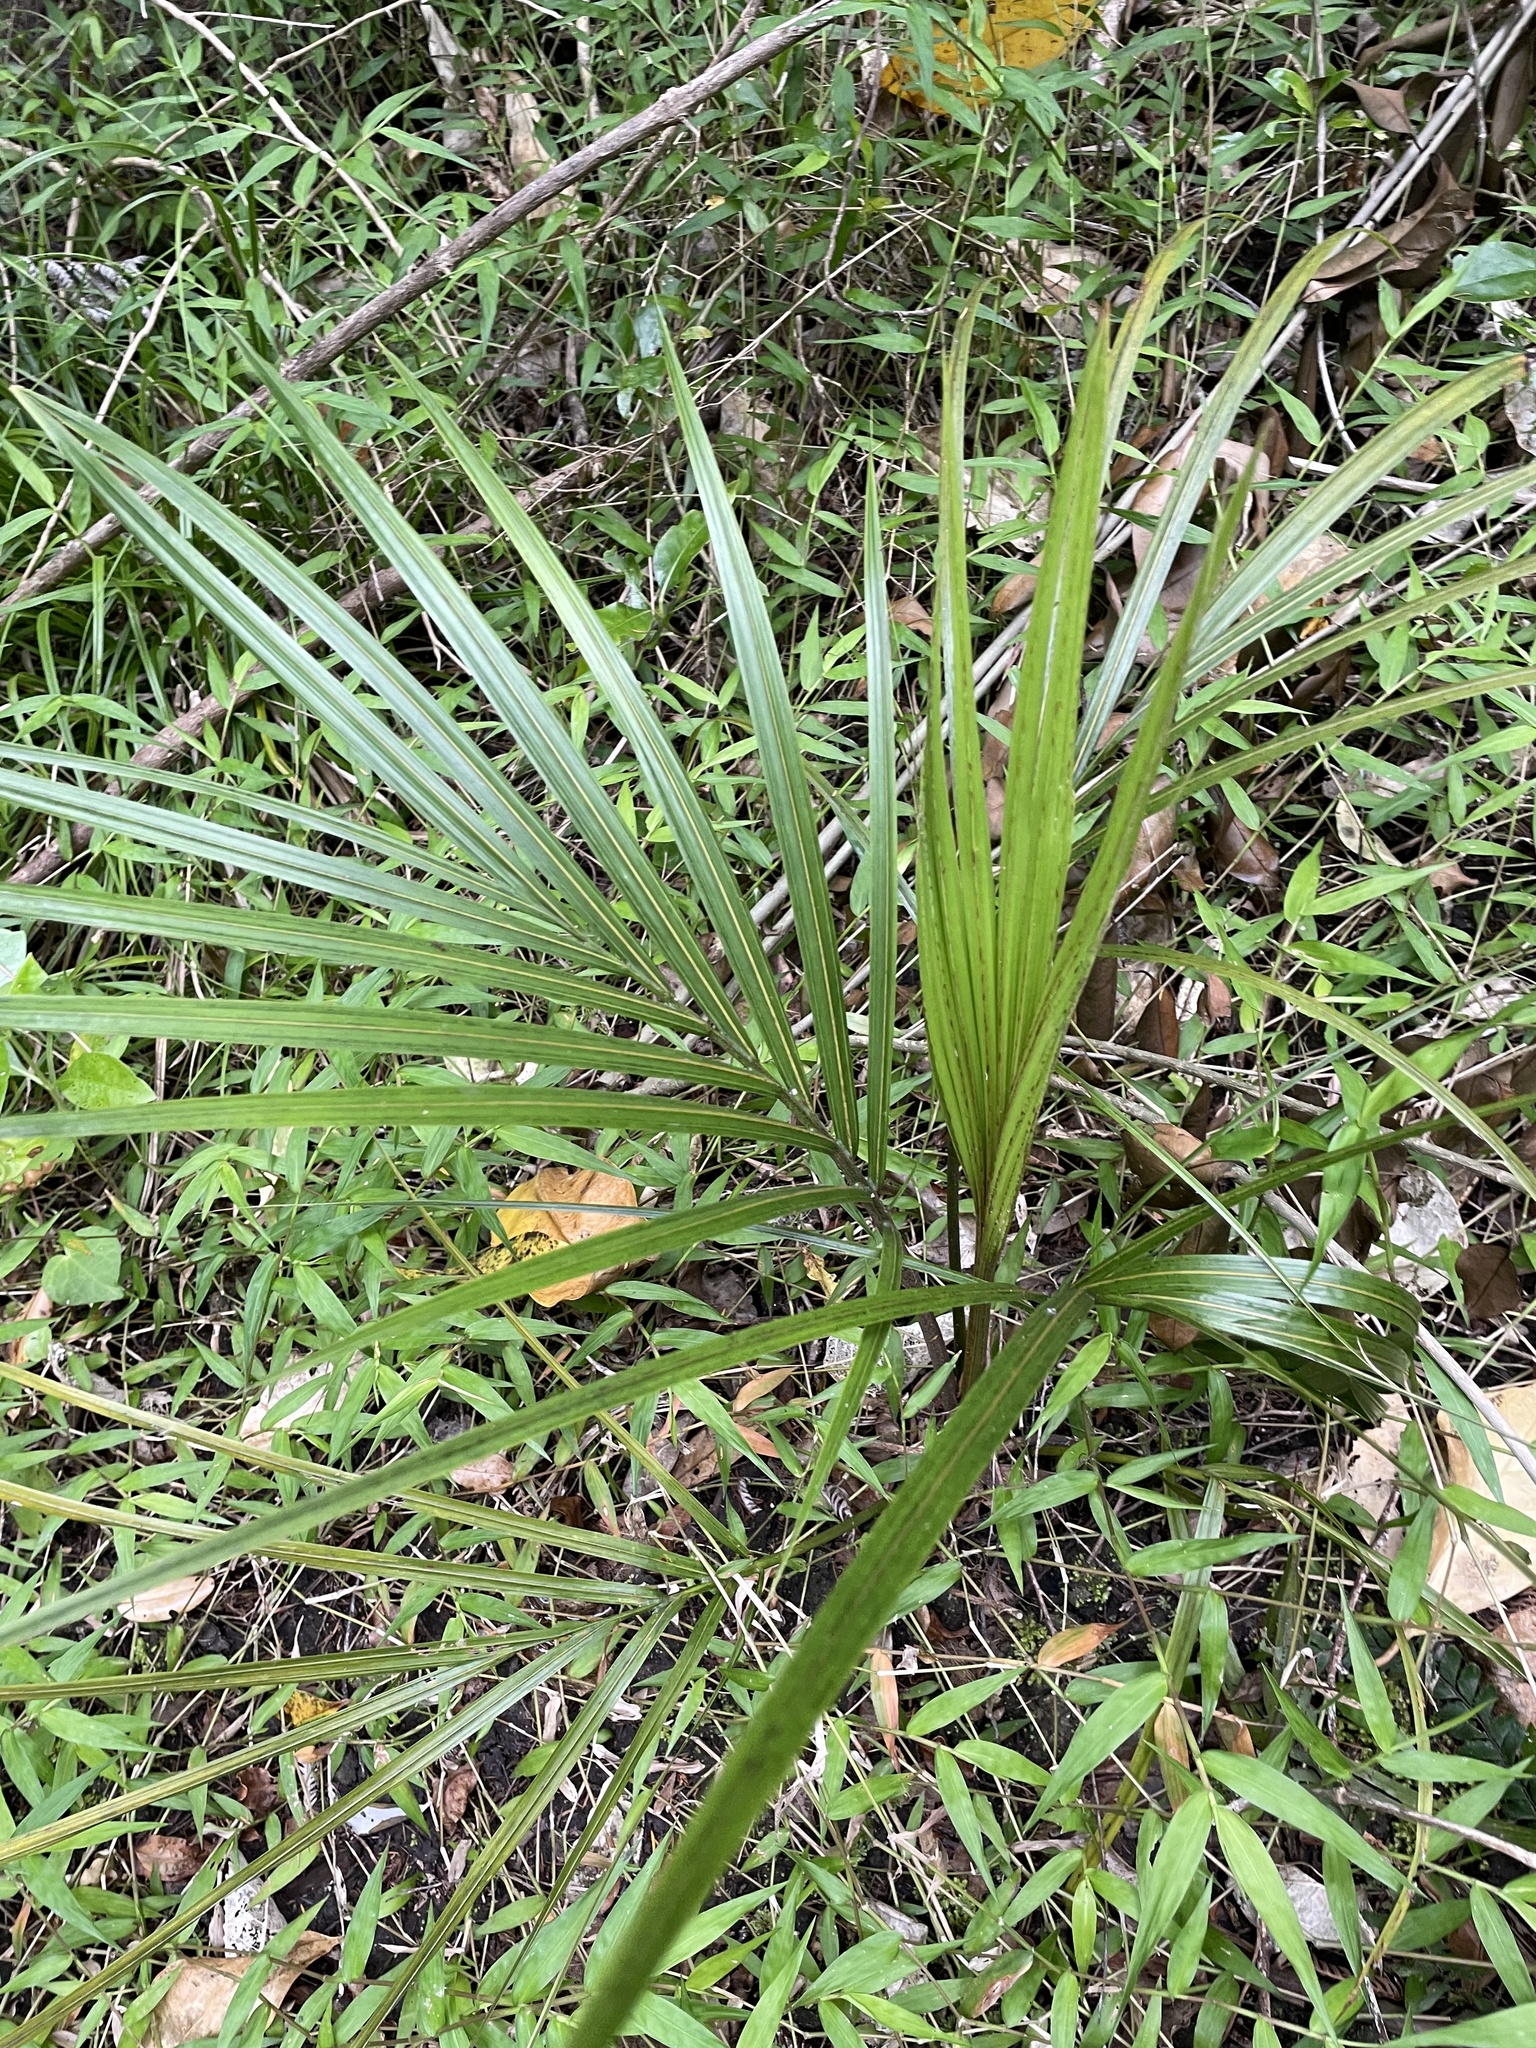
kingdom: Plantae
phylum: Tracheophyta
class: Liliopsida
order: Arecales
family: Arecaceae
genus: Rhopalostylis
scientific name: Rhopalostylis sapida
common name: Feather-duster palm
